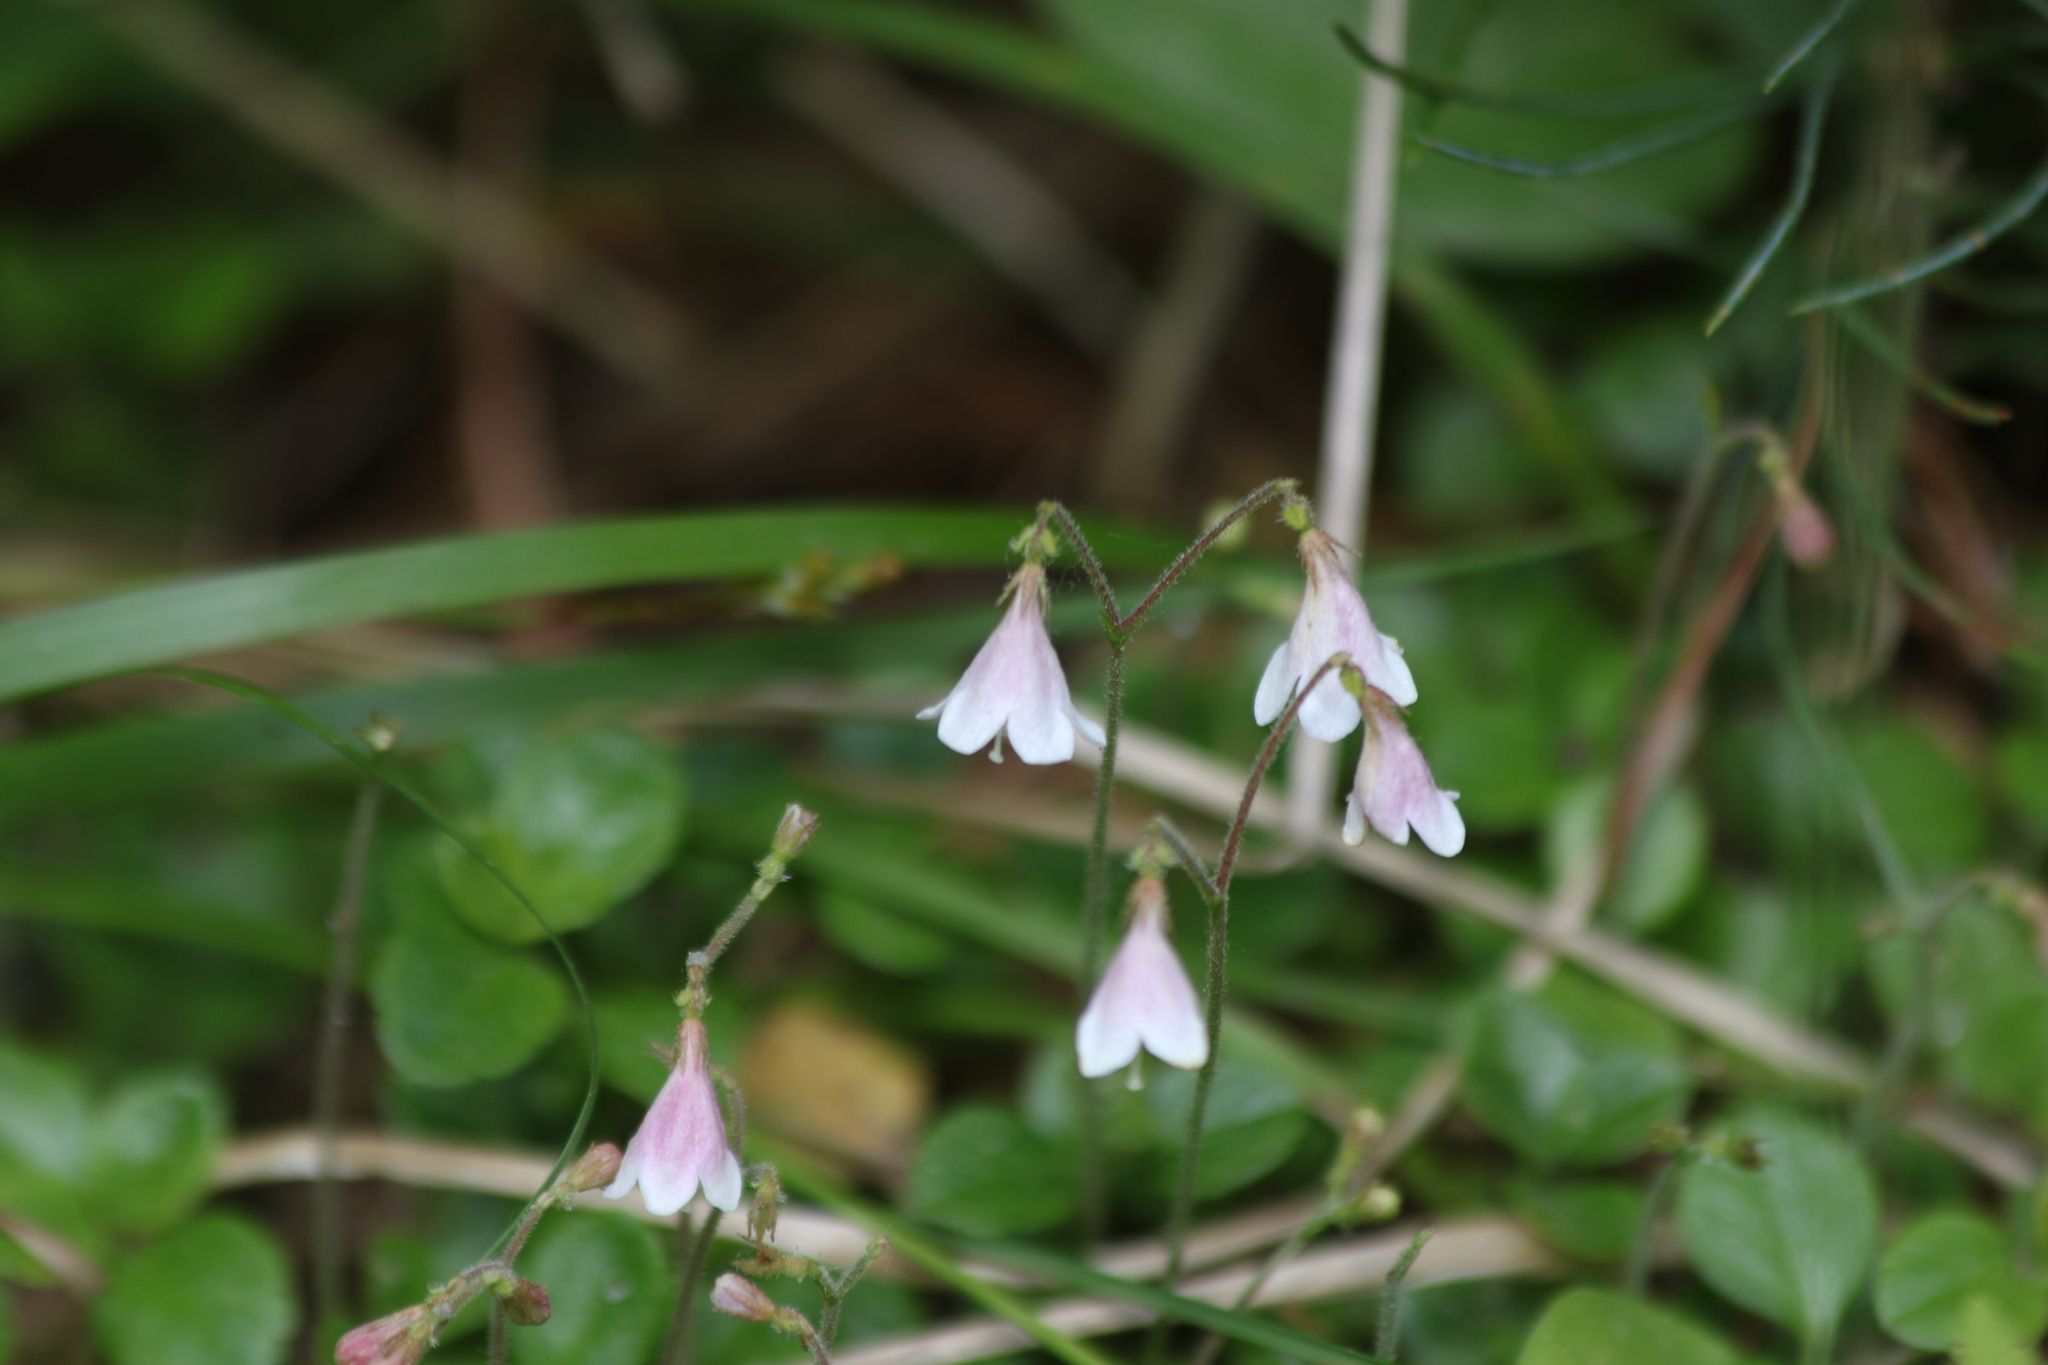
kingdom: Plantae
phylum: Tracheophyta
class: Magnoliopsida
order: Dipsacales
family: Caprifoliaceae
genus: Linnaea
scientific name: Linnaea borealis
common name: Twinflower
